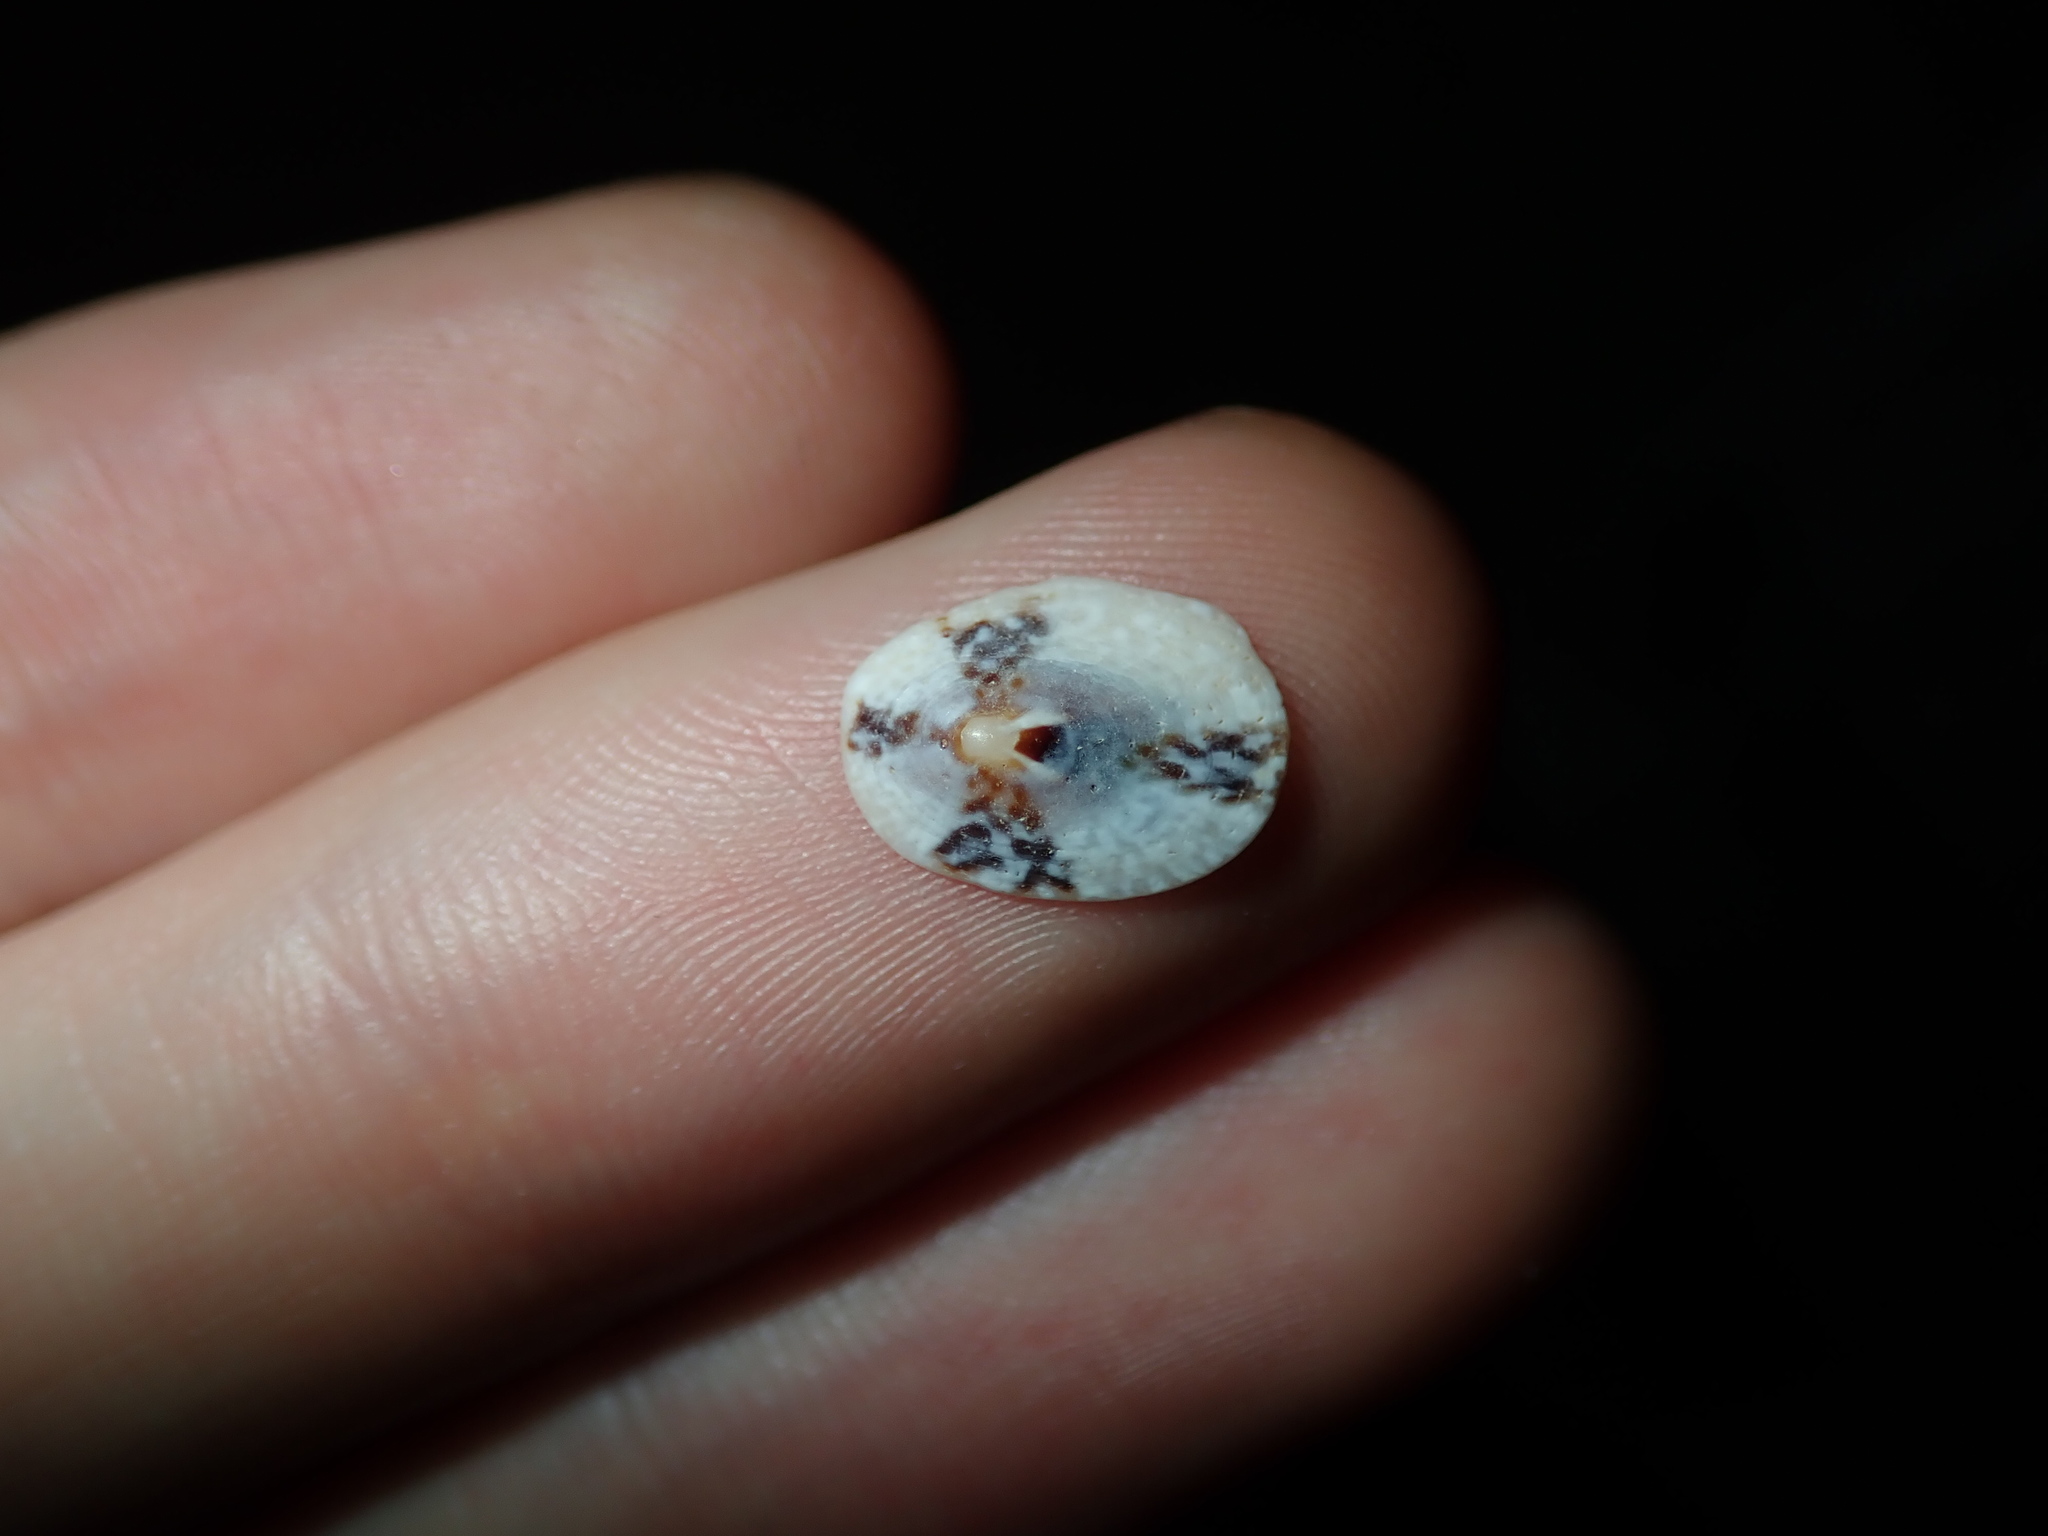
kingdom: Animalia
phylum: Mollusca
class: Gastropoda
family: Lottiidae
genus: Patelloida
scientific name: Patelloida mufria
